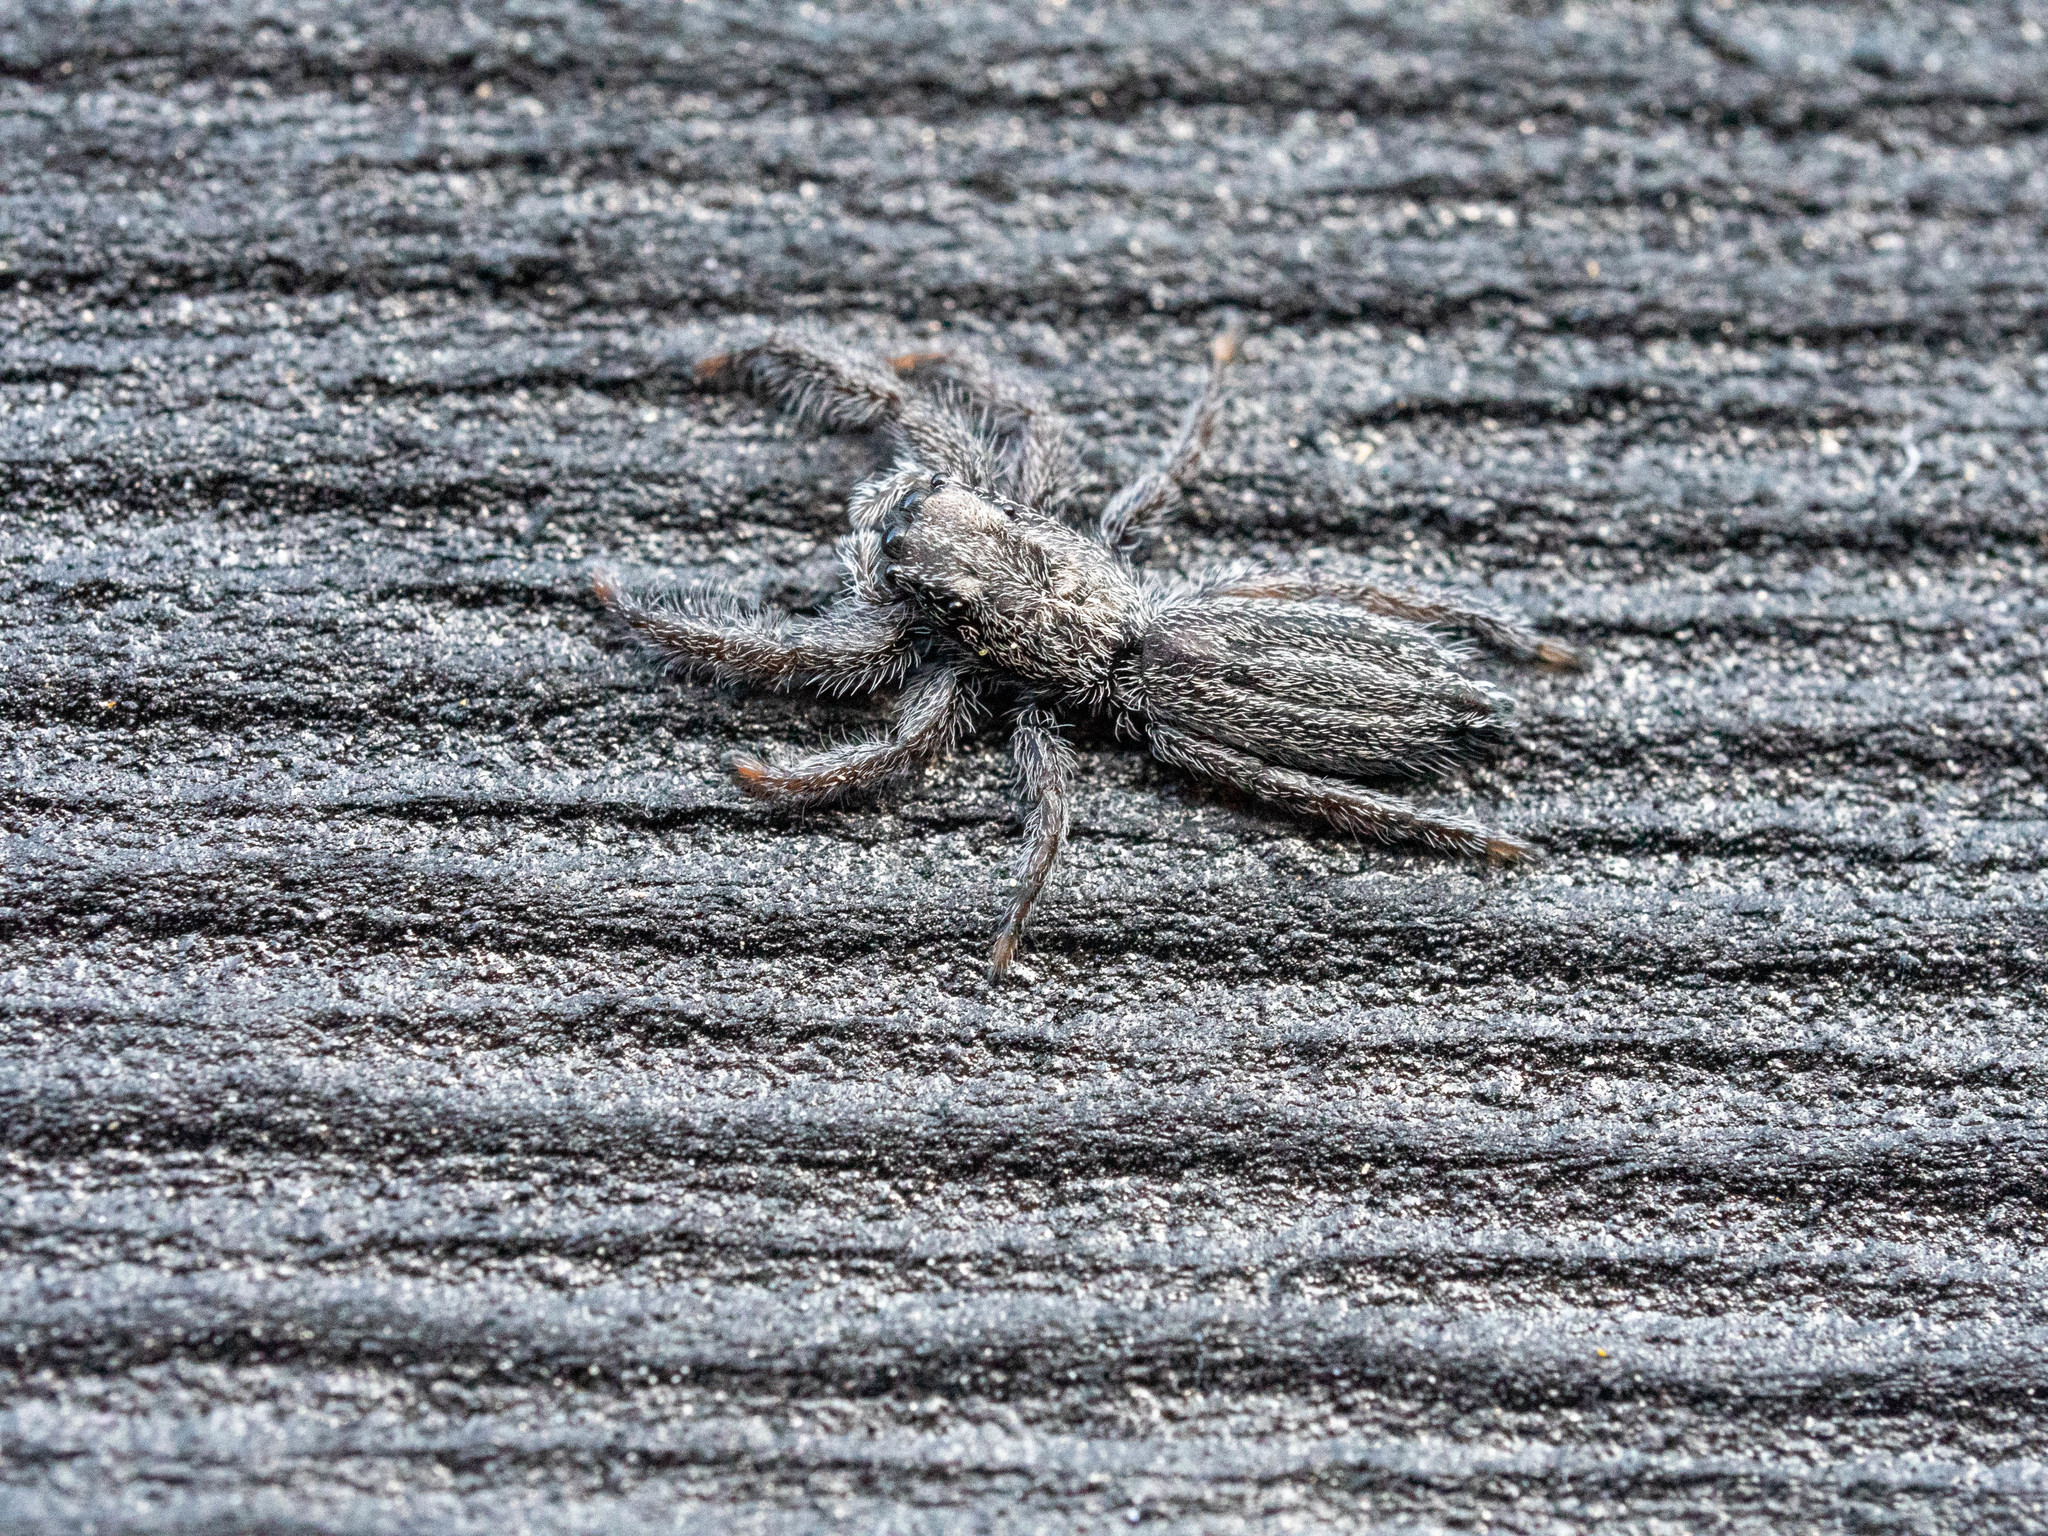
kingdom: Animalia
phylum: Arthropoda
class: Arachnida
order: Araneae
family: Salticidae
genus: Holoplatys
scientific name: Holoplatys apressus
